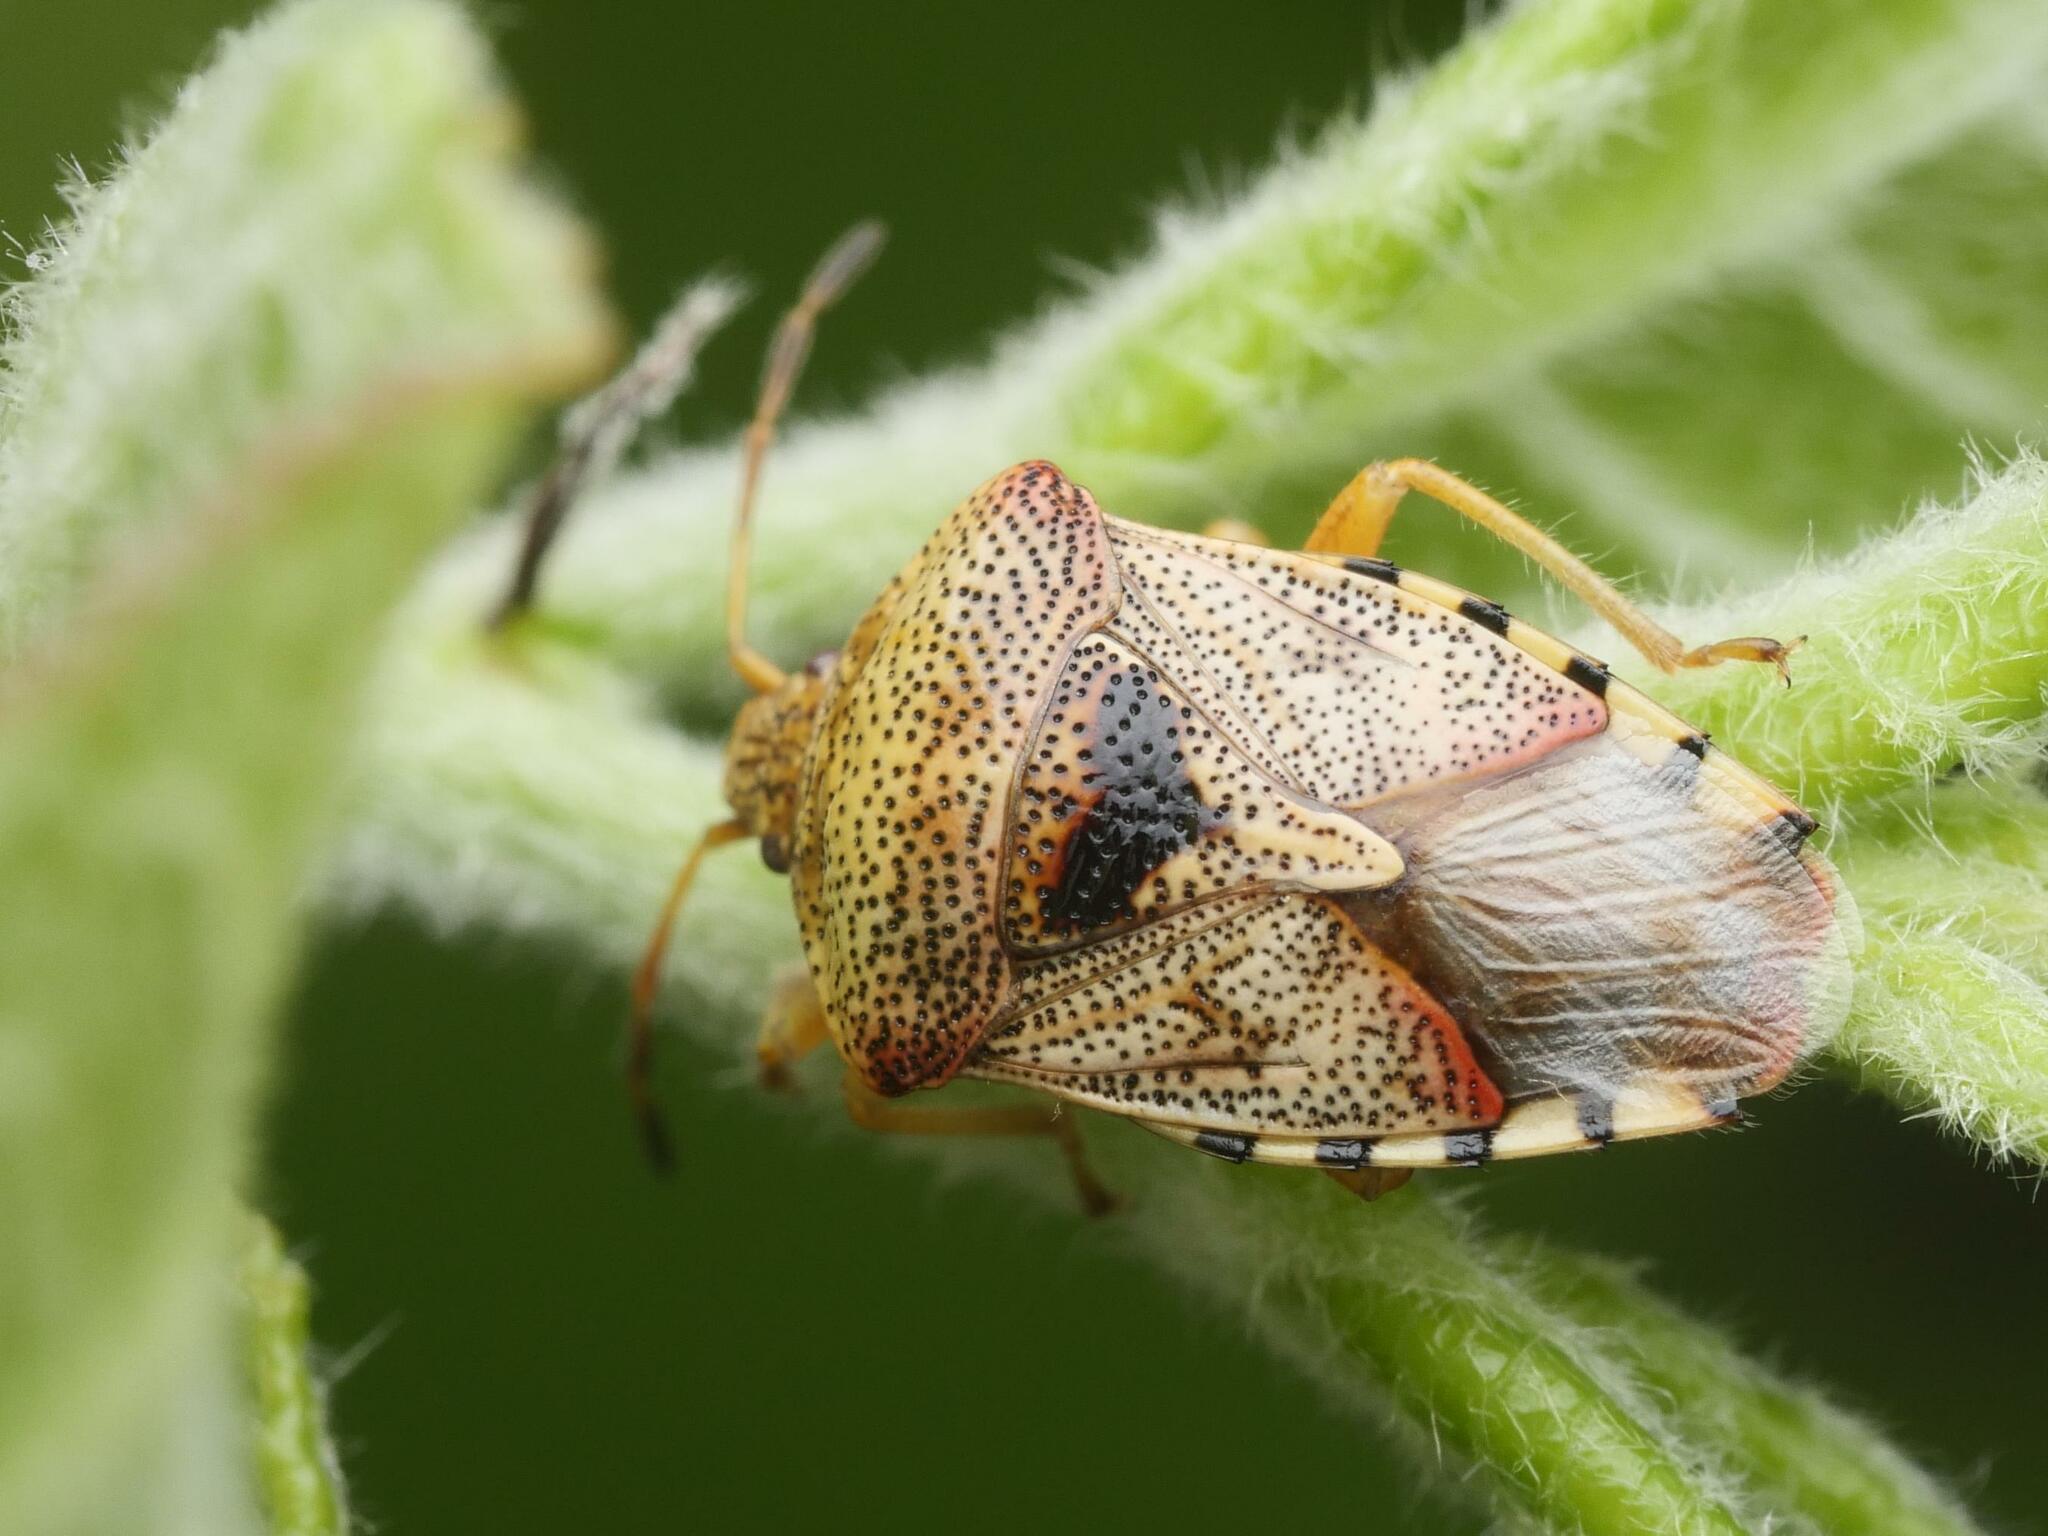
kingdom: Animalia
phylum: Arthropoda
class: Insecta
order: Hemiptera
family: Acanthosomatidae
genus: Elasmucha
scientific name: Elasmucha grisea
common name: Parent bug
